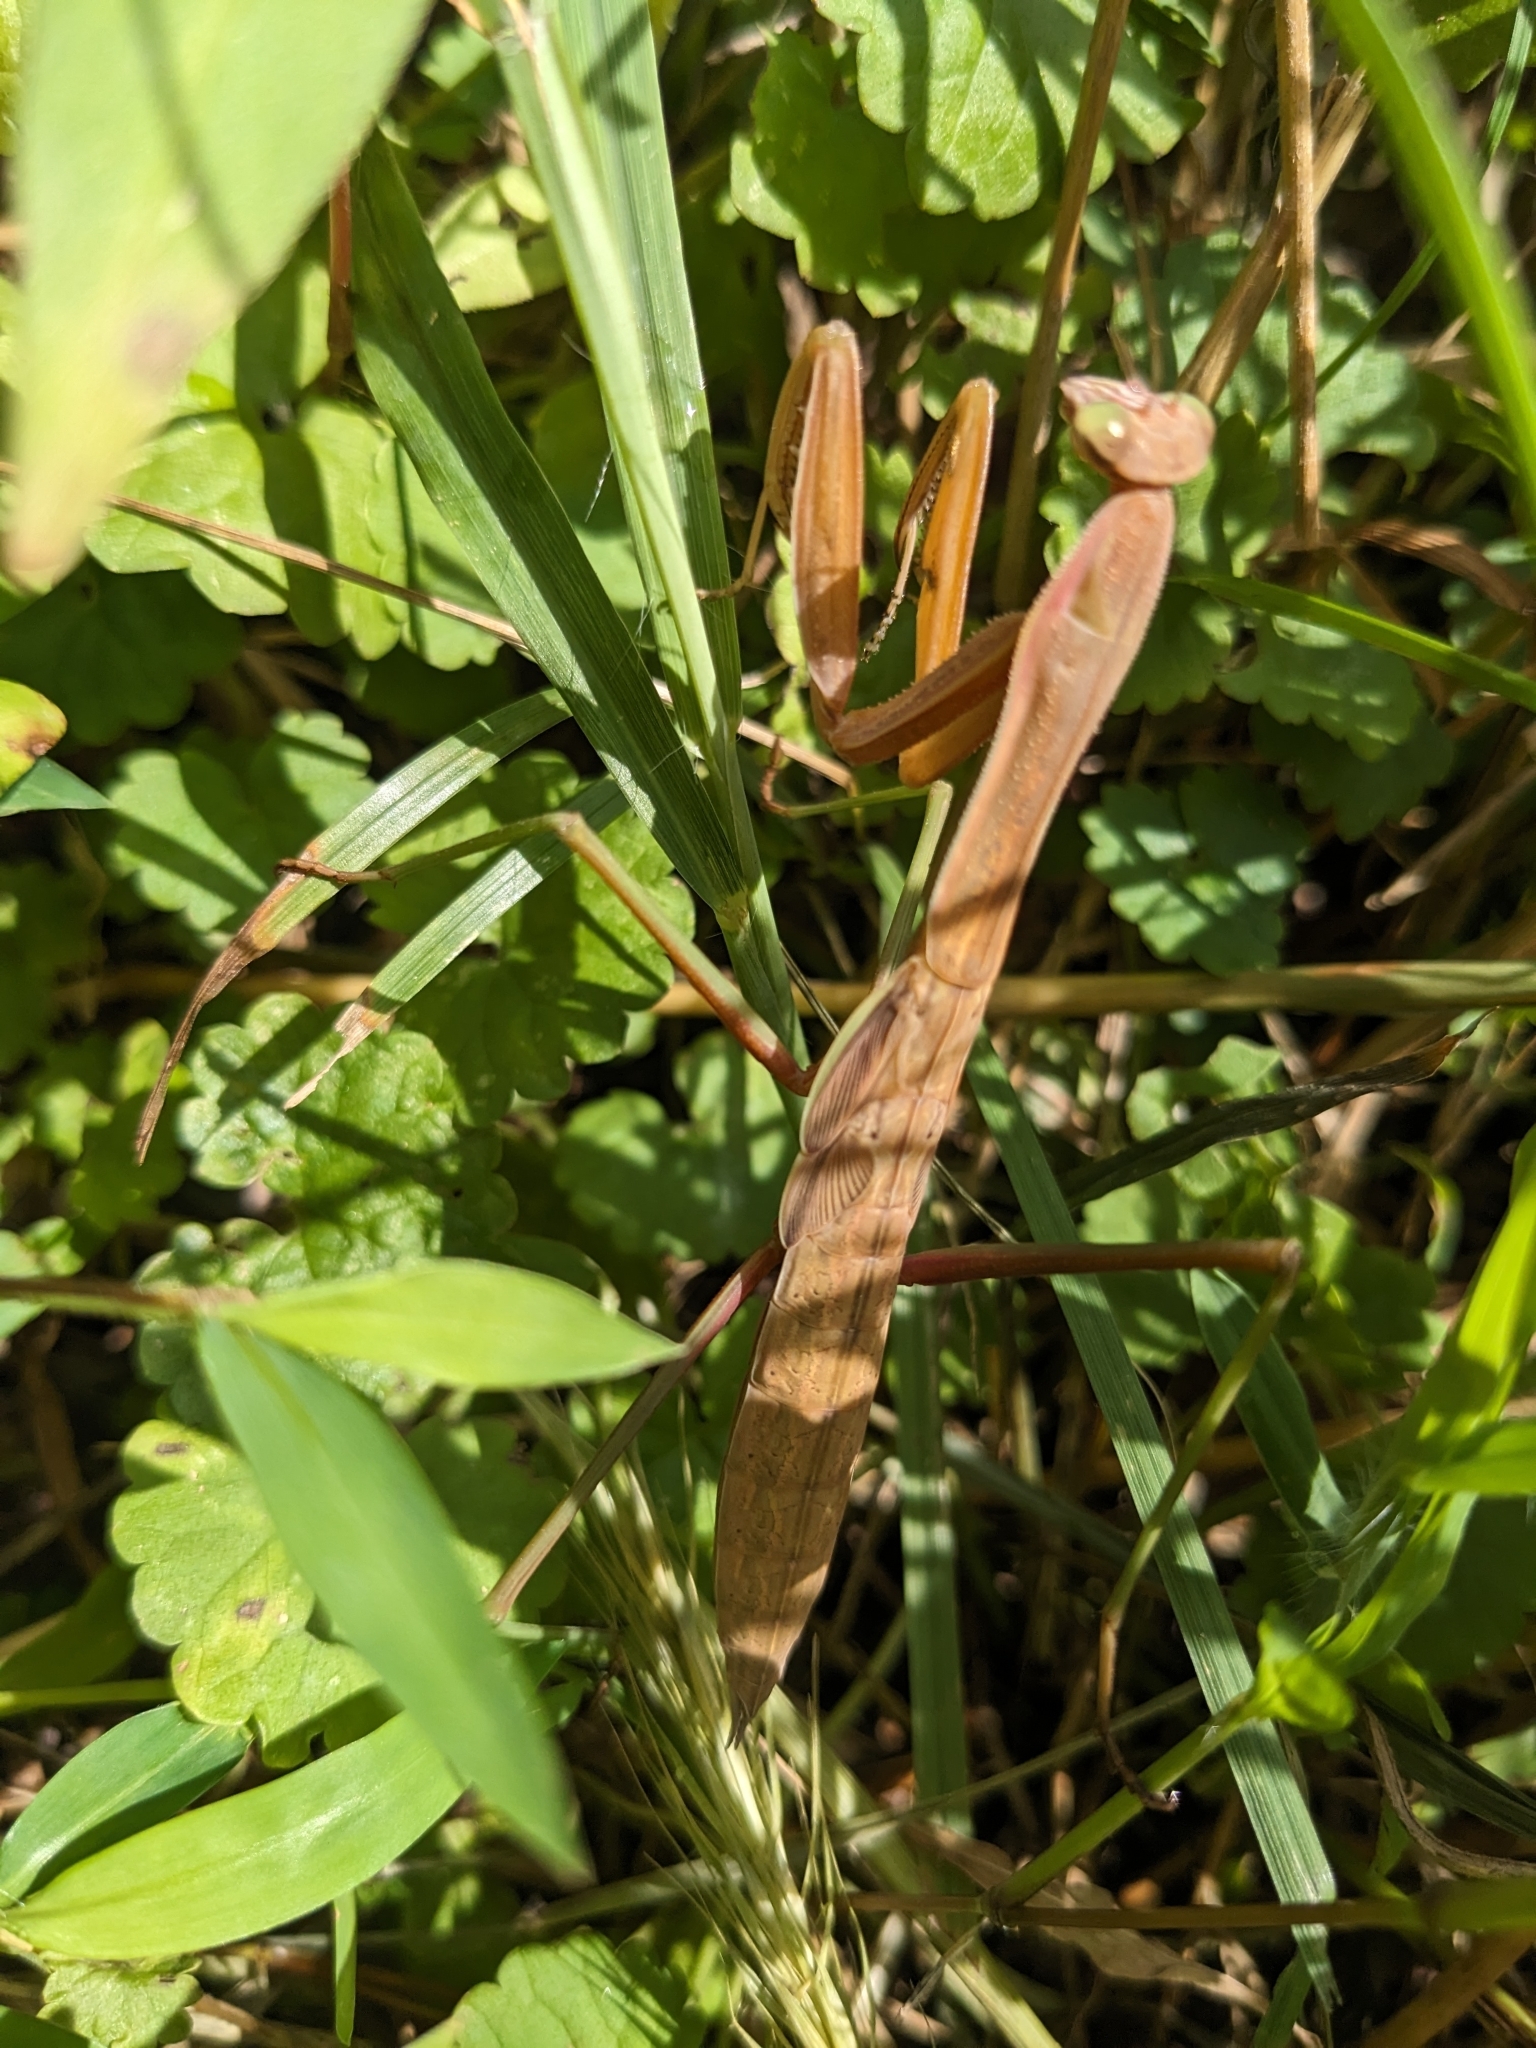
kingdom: Animalia
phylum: Arthropoda
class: Insecta
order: Mantodea
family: Mantidae
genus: Tenodera
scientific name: Tenodera sinensis
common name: Chinese mantis
